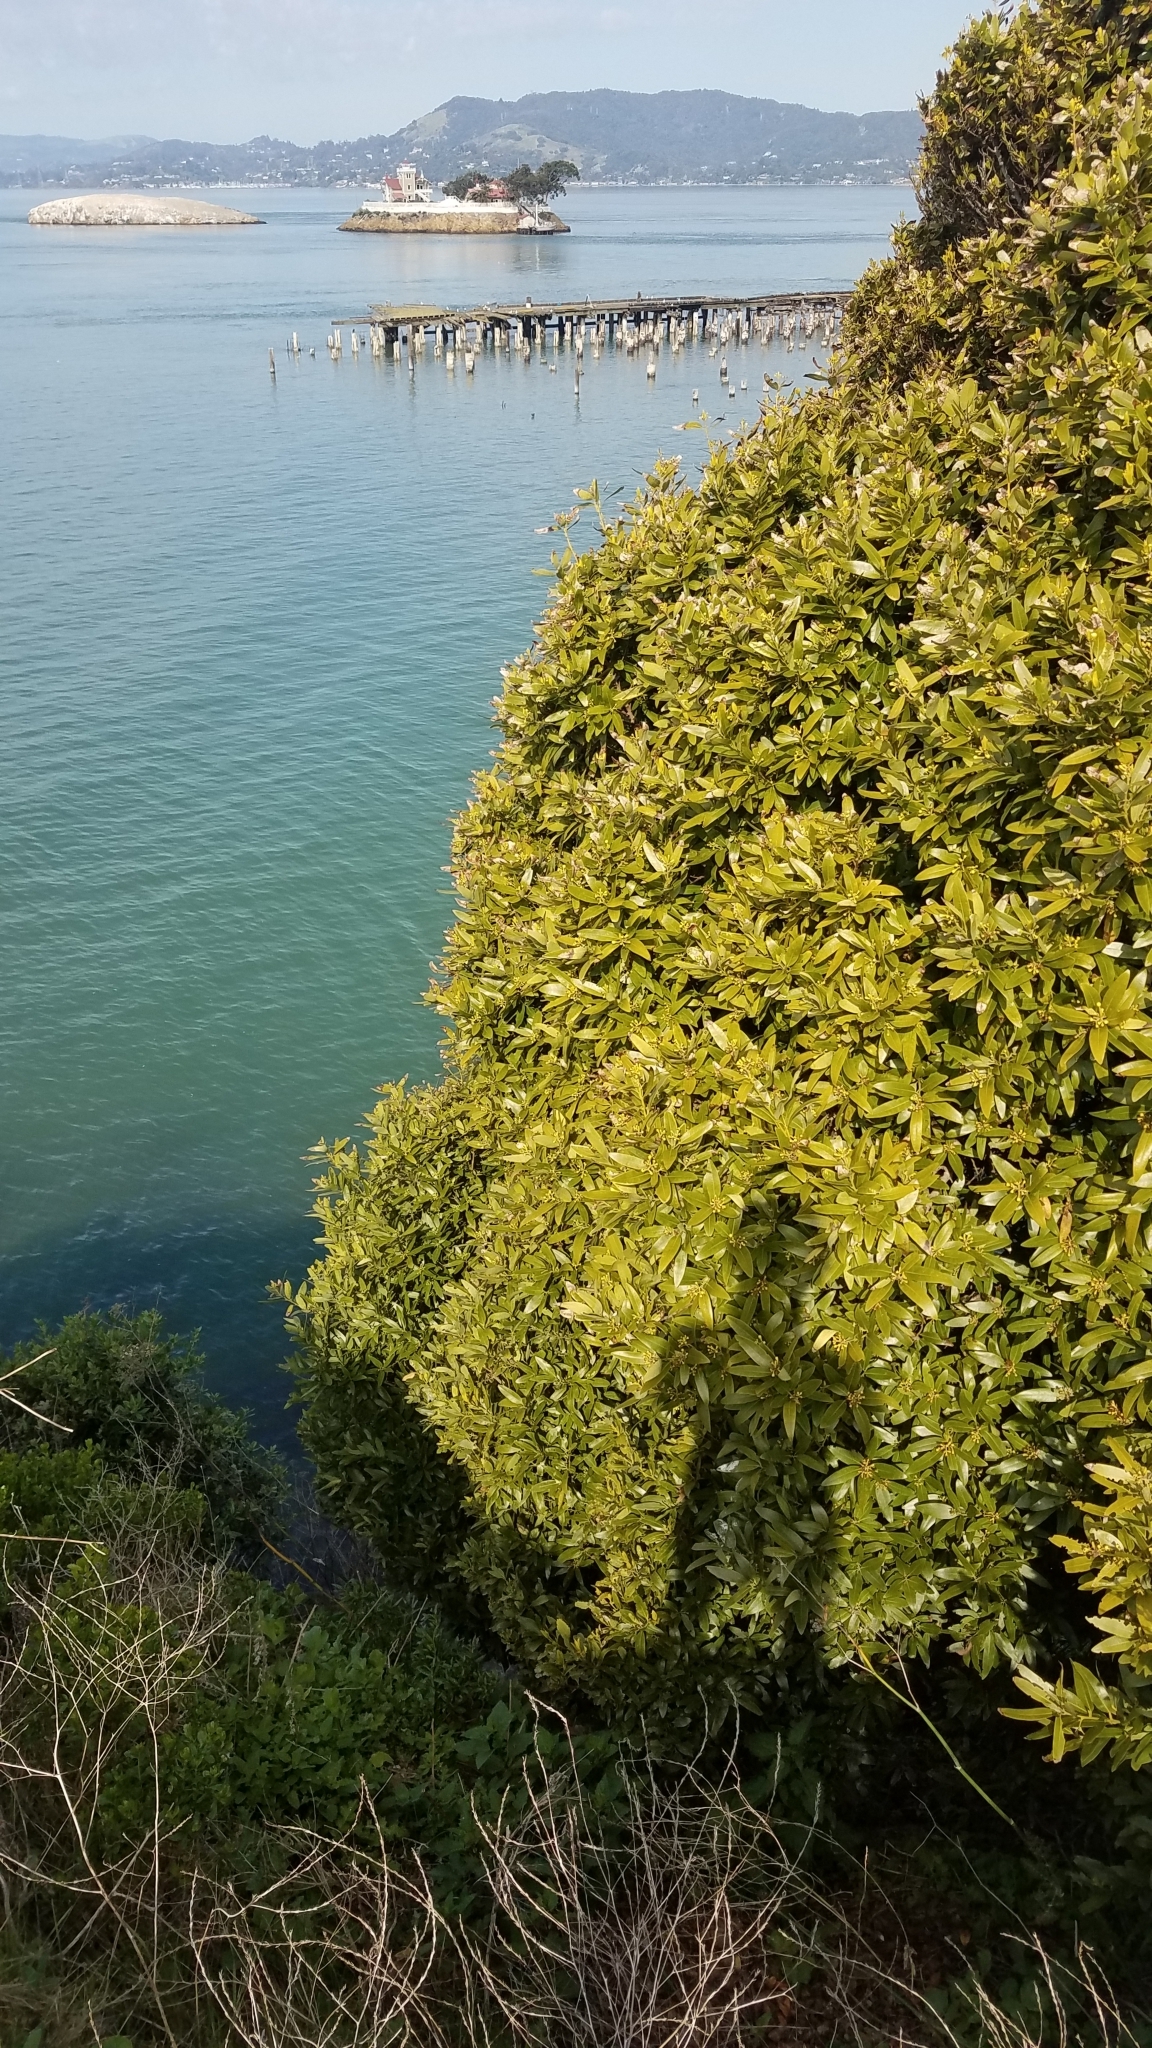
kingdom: Plantae
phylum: Tracheophyta
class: Magnoliopsida
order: Laurales
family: Lauraceae
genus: Umbellularia
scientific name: Umbellularia californica
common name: California bay
